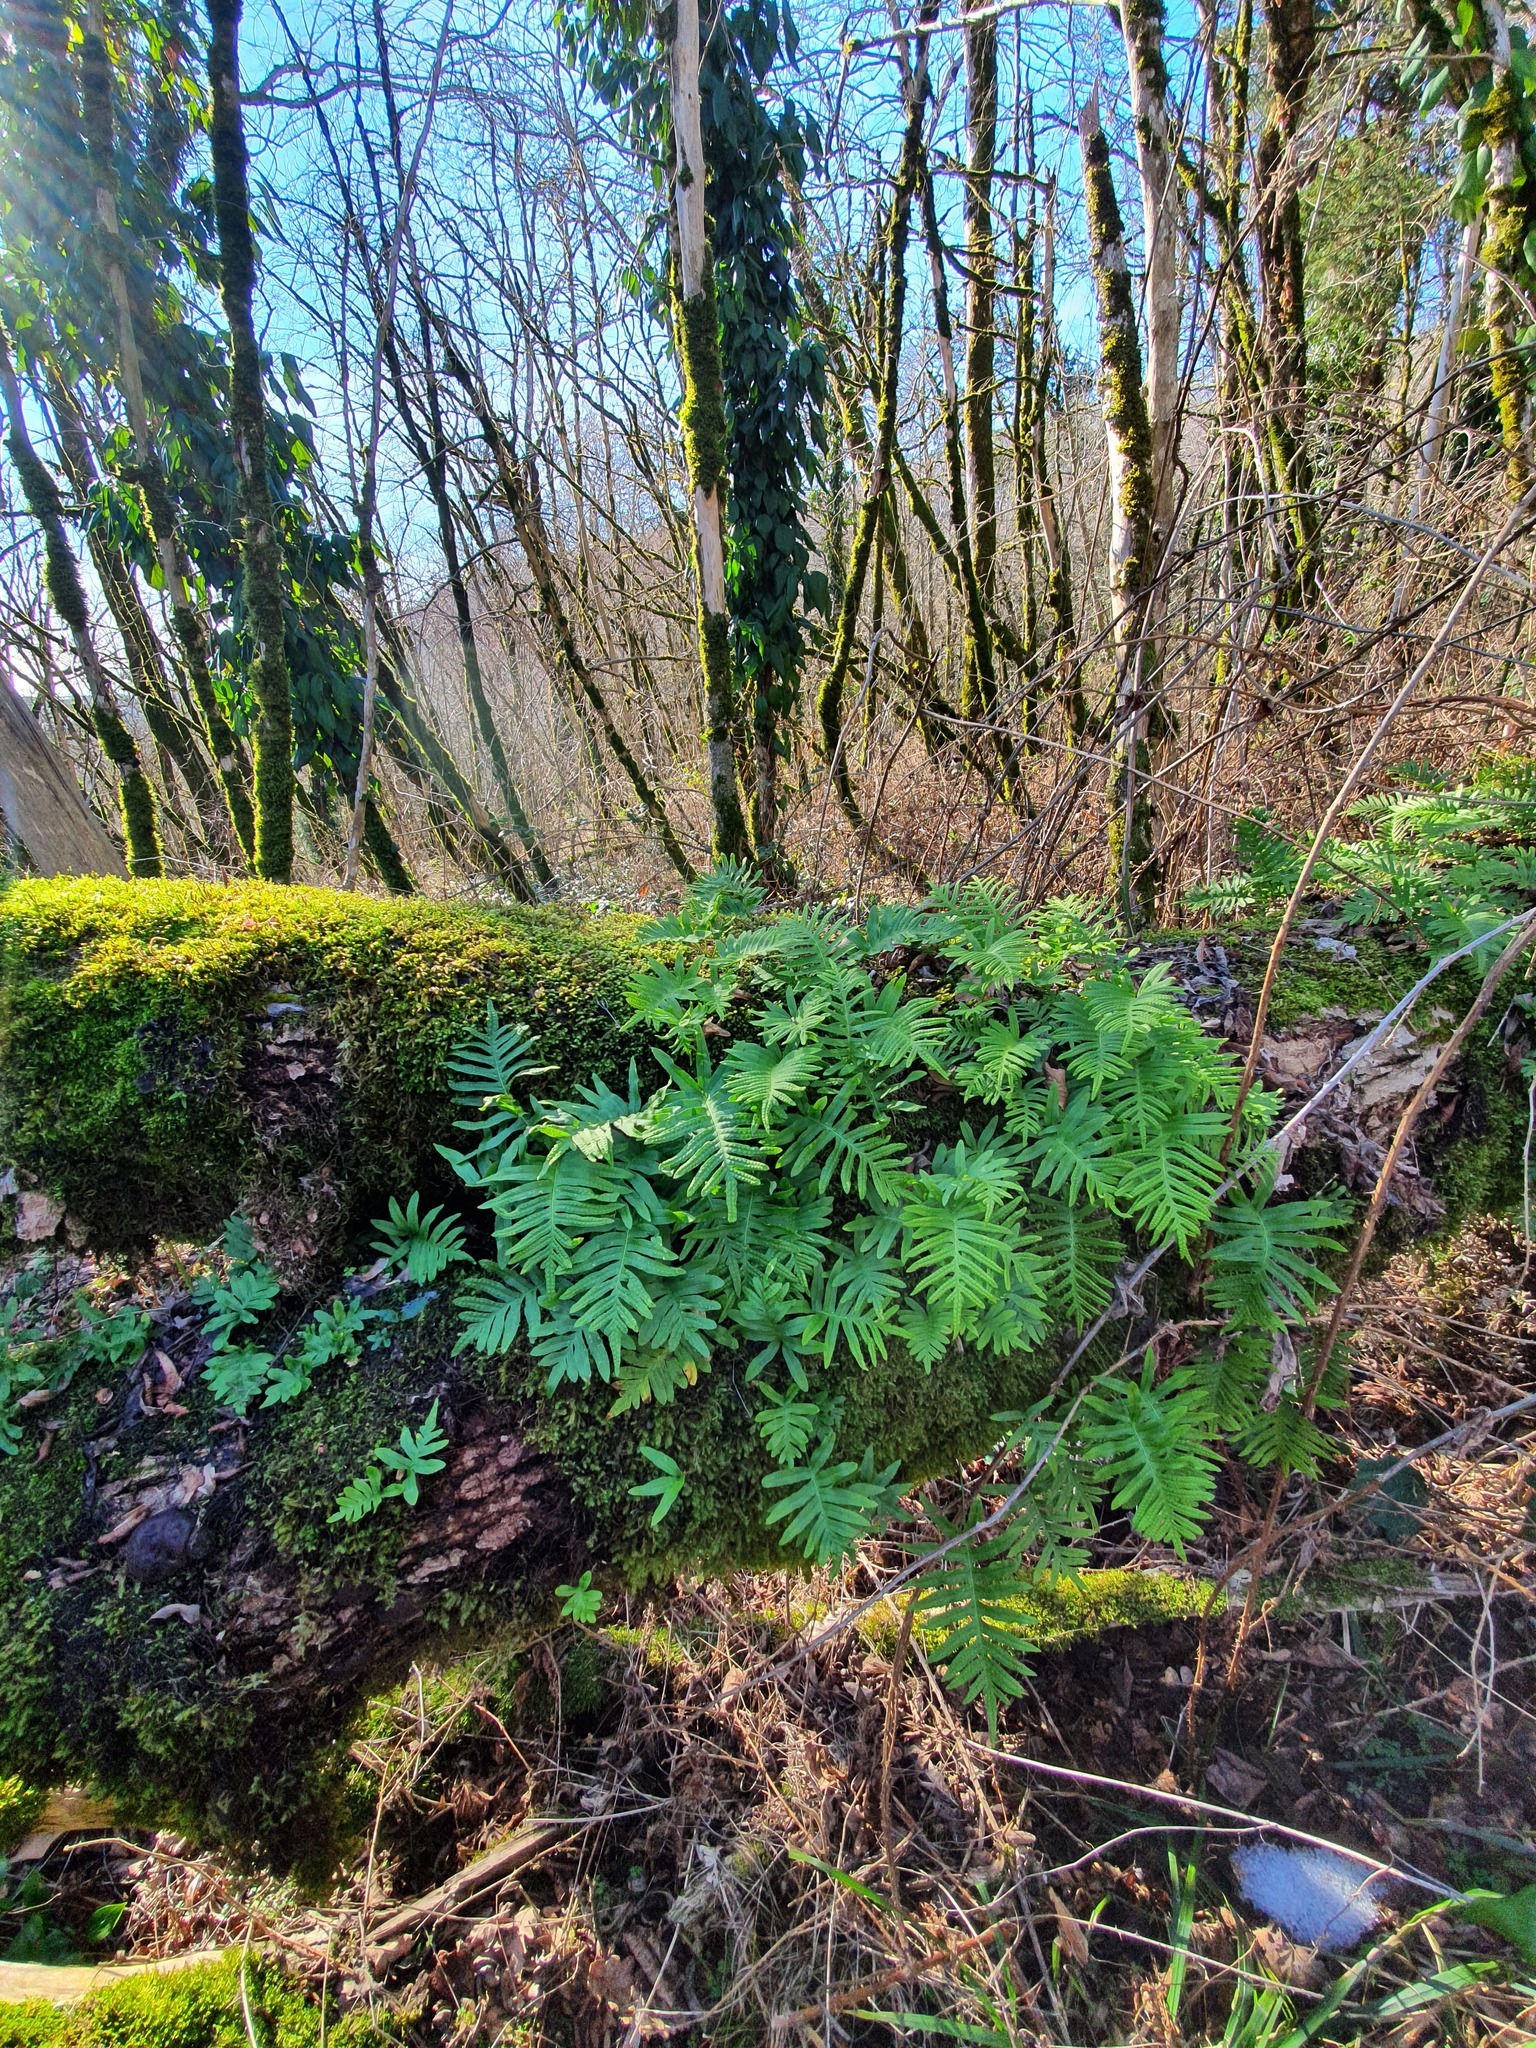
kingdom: Plantae
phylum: Tracheophyta
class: Polypodiopsida
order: Polypodiales
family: Polypodiaceae
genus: Polypodium
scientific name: Polypodium cambricum
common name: Southern polypody
